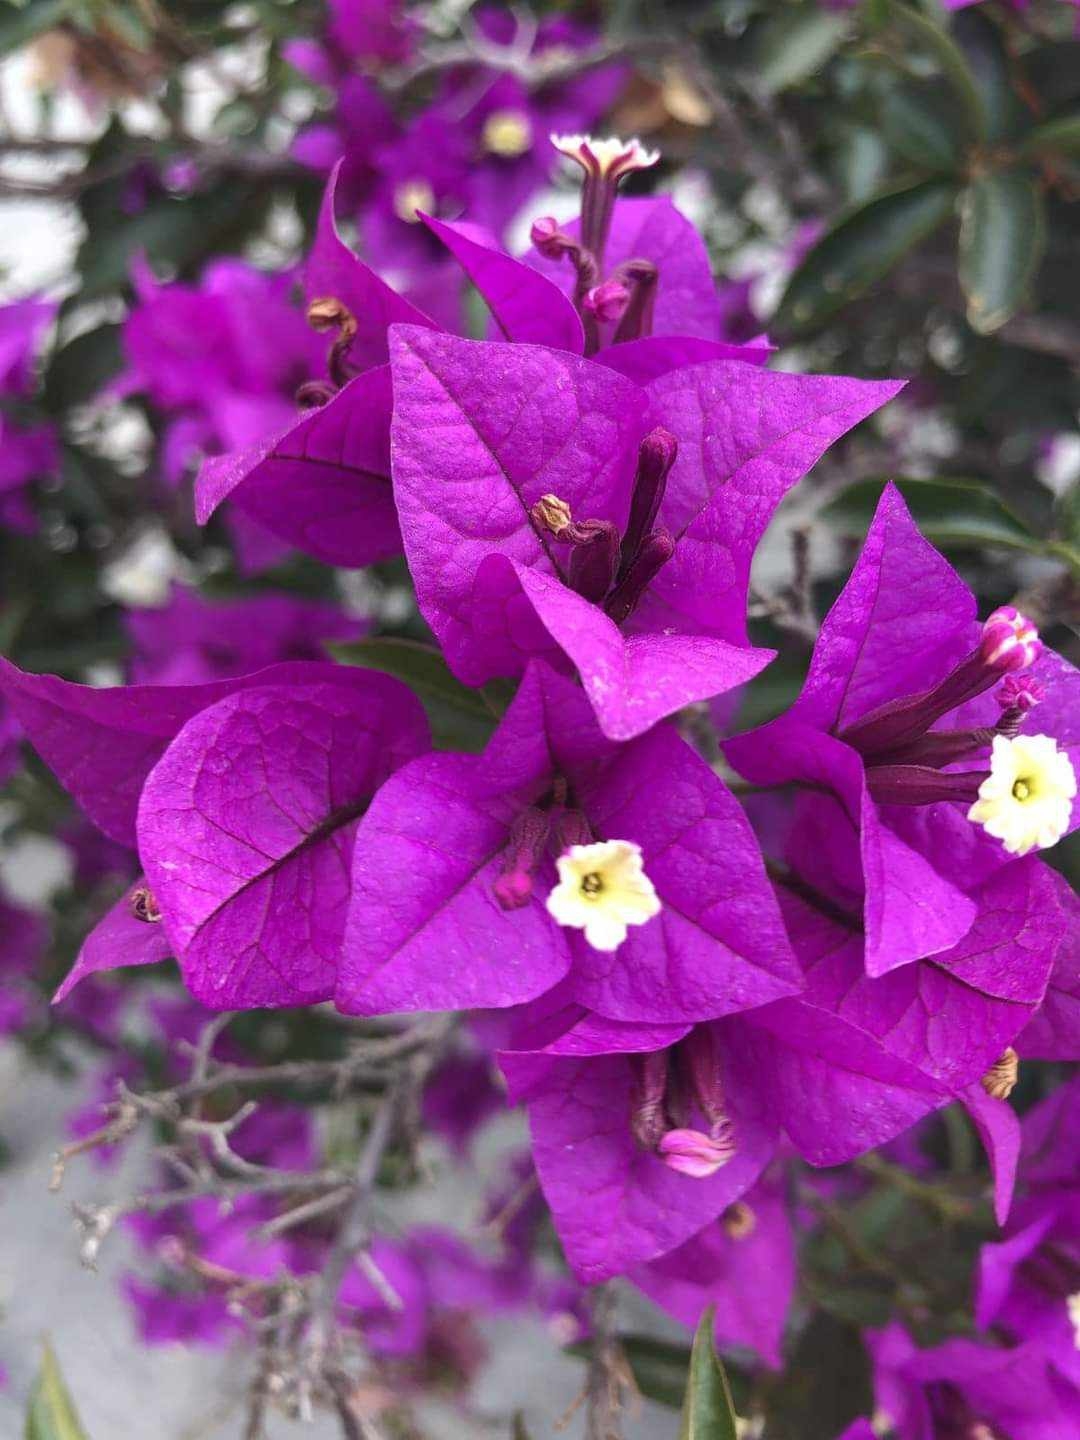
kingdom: Plantae
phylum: Tracheophyta
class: Magnoliopsida
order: Caryophyllales
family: Nyctaginaceae
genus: Bougainvillea
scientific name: Bougainvillea glabra
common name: Paperflower
